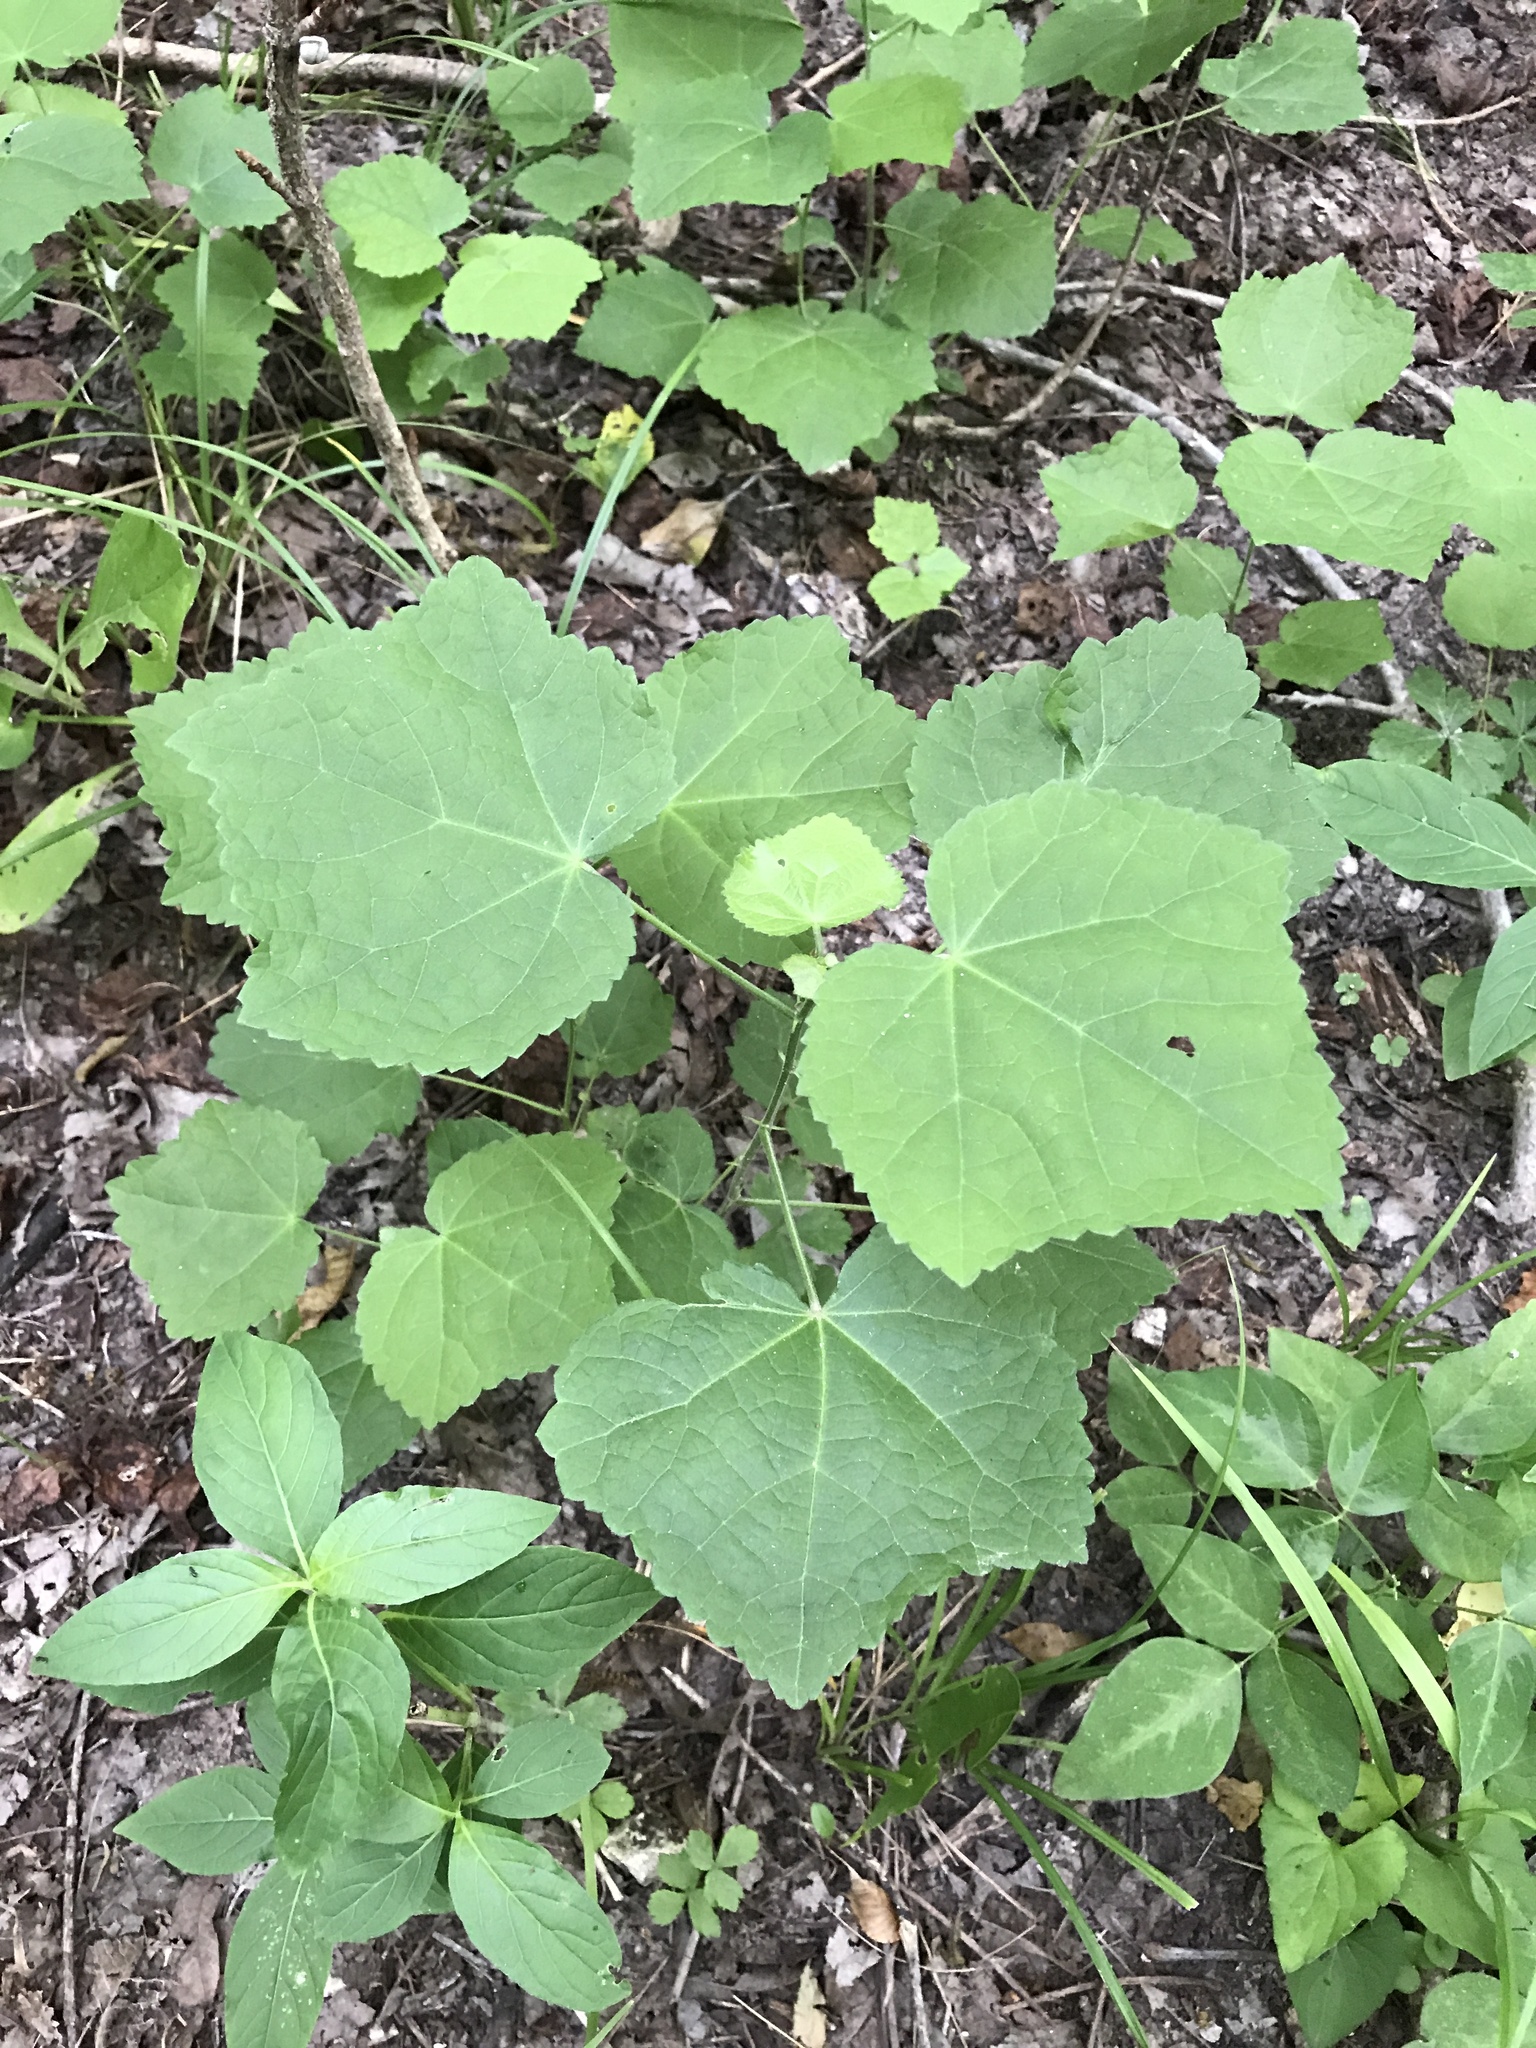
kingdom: Plantae
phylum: Tracheophyta
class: Magnoliopsida
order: Malvales
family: Malvaceae
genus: Malvaviscus
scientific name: Malvaviscus arboreus
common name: Wax mallow
